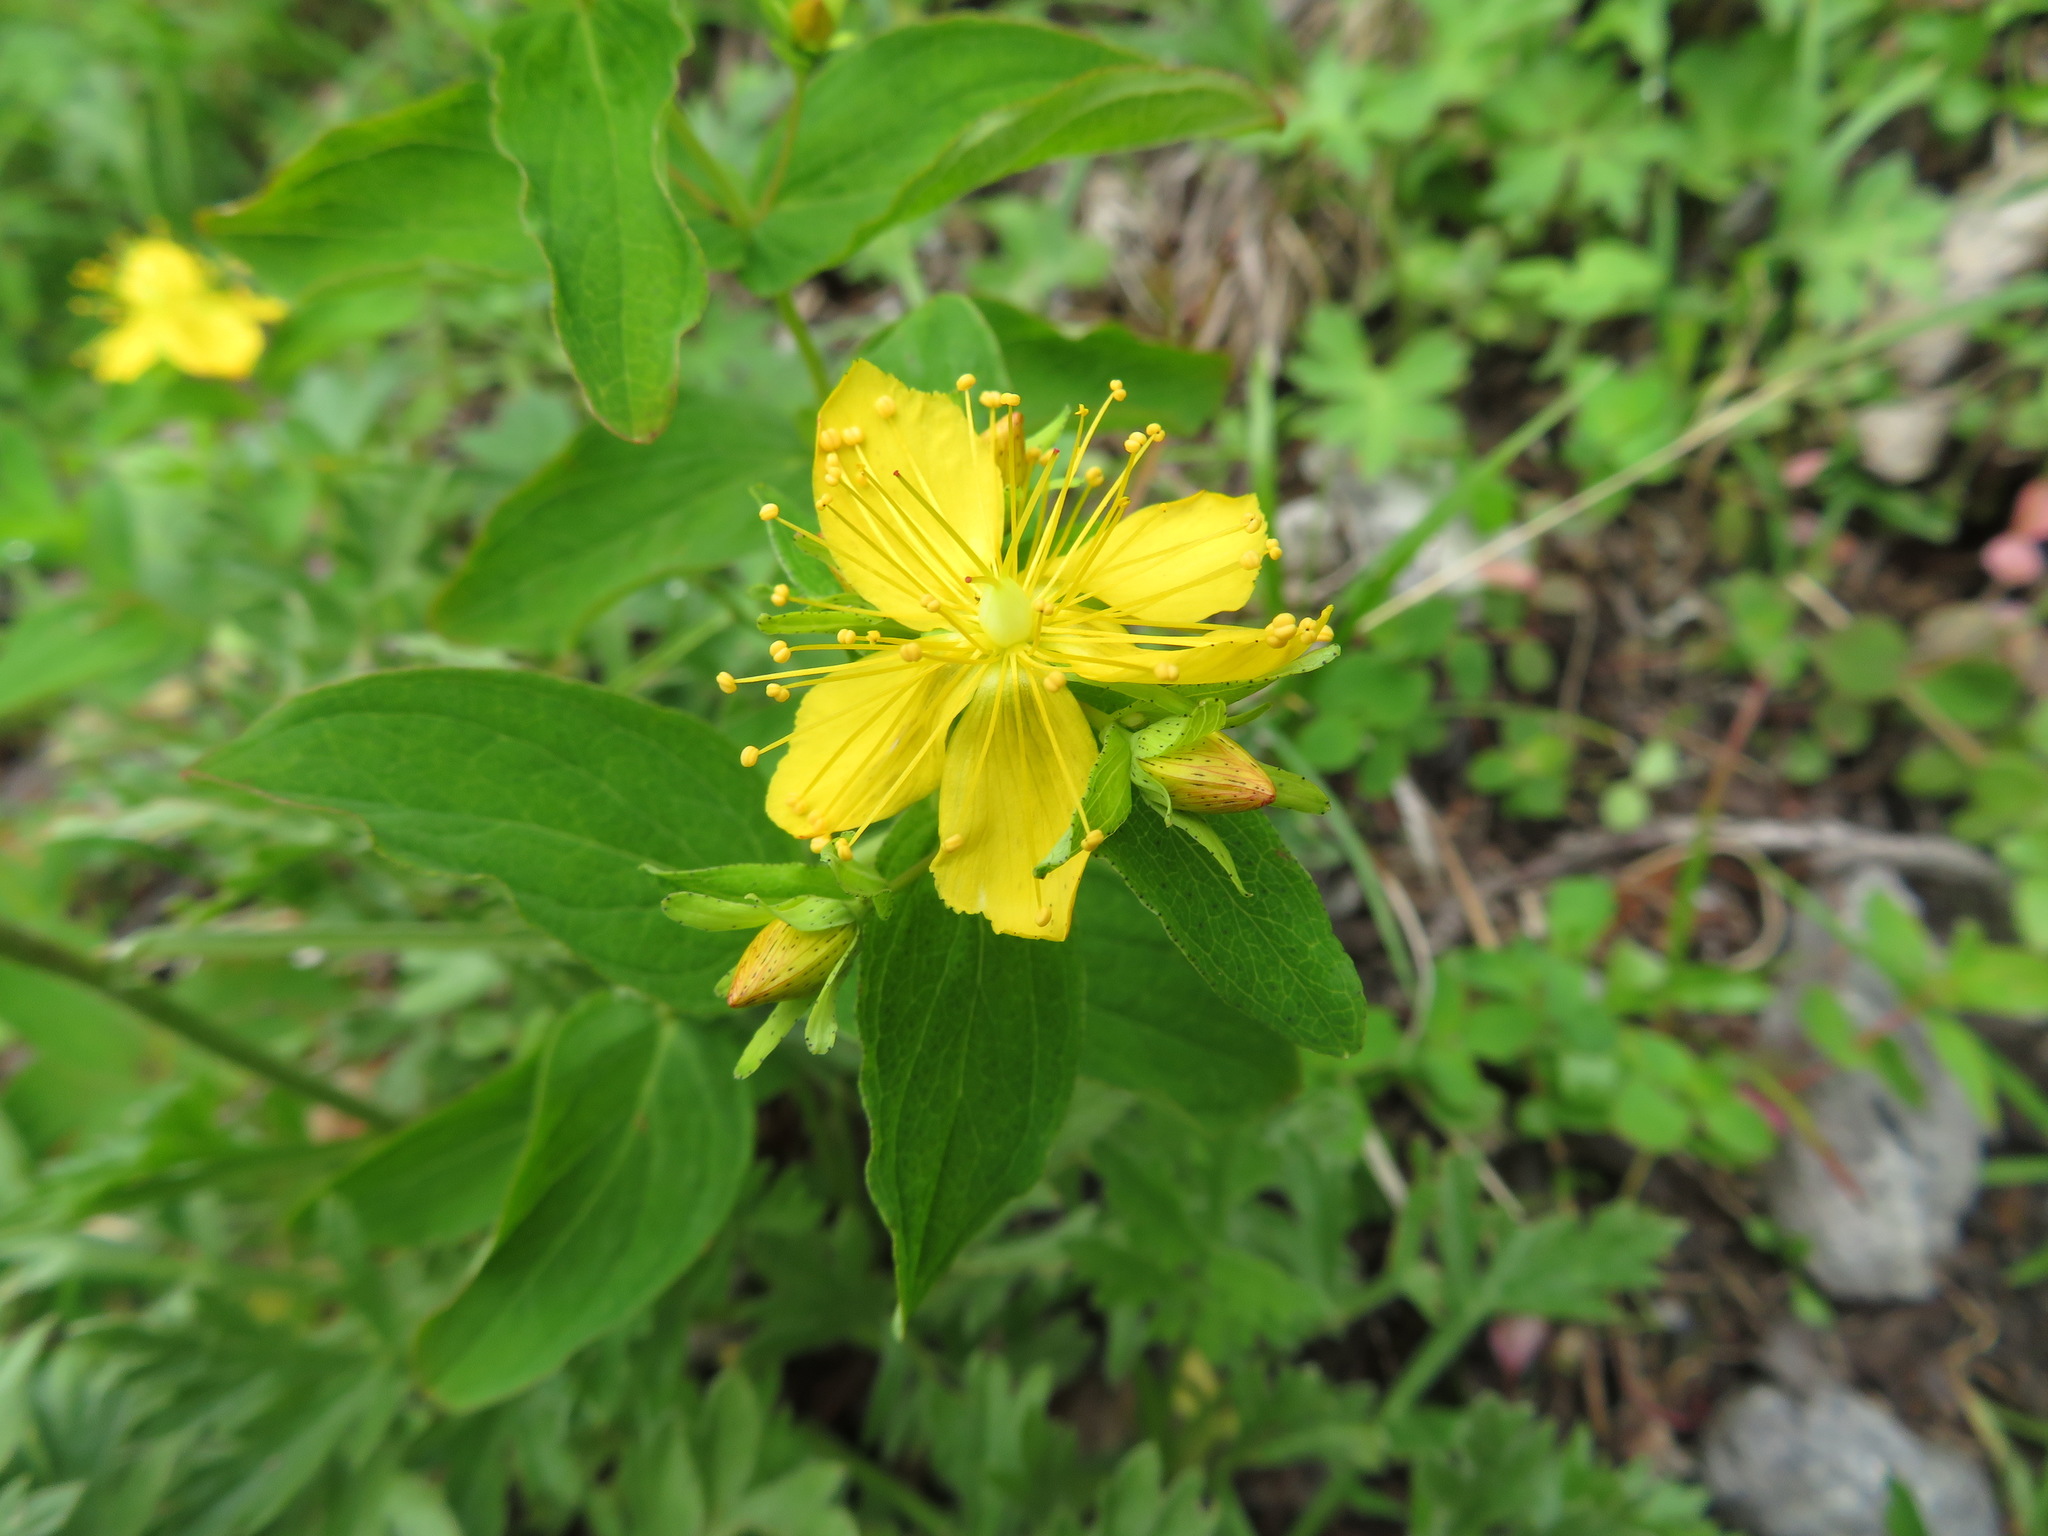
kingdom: Plantae
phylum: Tracheophyta
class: Magnoliopsida
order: Malpighiales
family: Hypericaceae
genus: Hypericum
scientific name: Hypericum kamtschaticum
